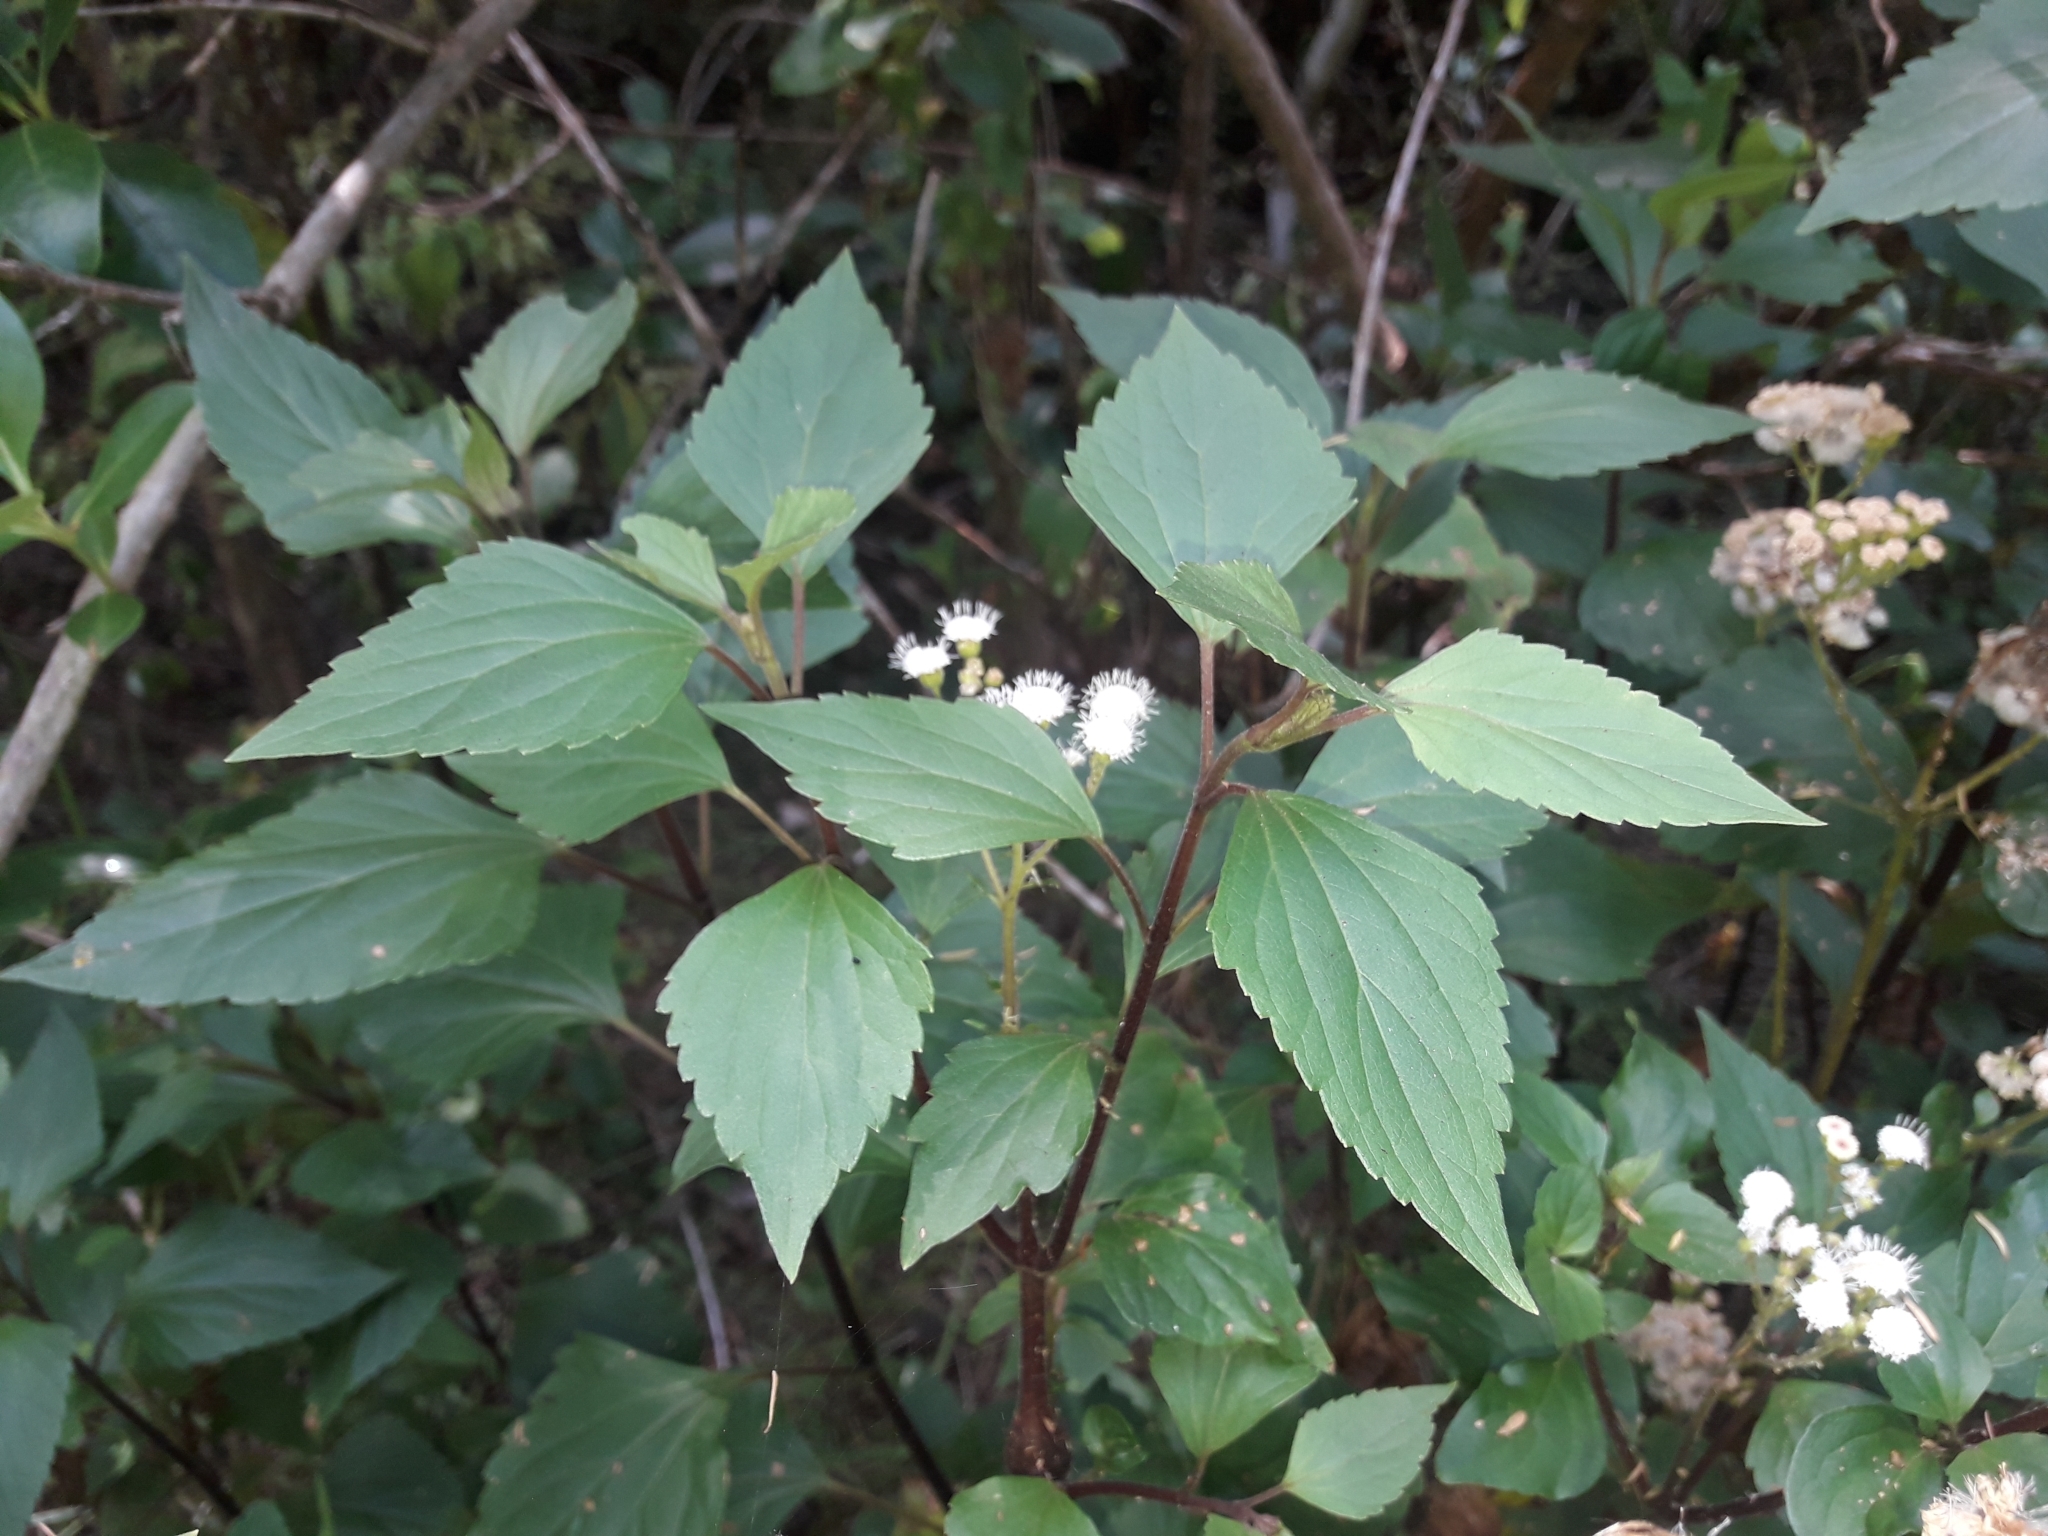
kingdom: Plantae
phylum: Tracheophyta
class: Magnoliopsida
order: Asterales
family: Asteraceae
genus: Ageratina
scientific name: Ageratina adenophora
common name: Sticky snakeroot
